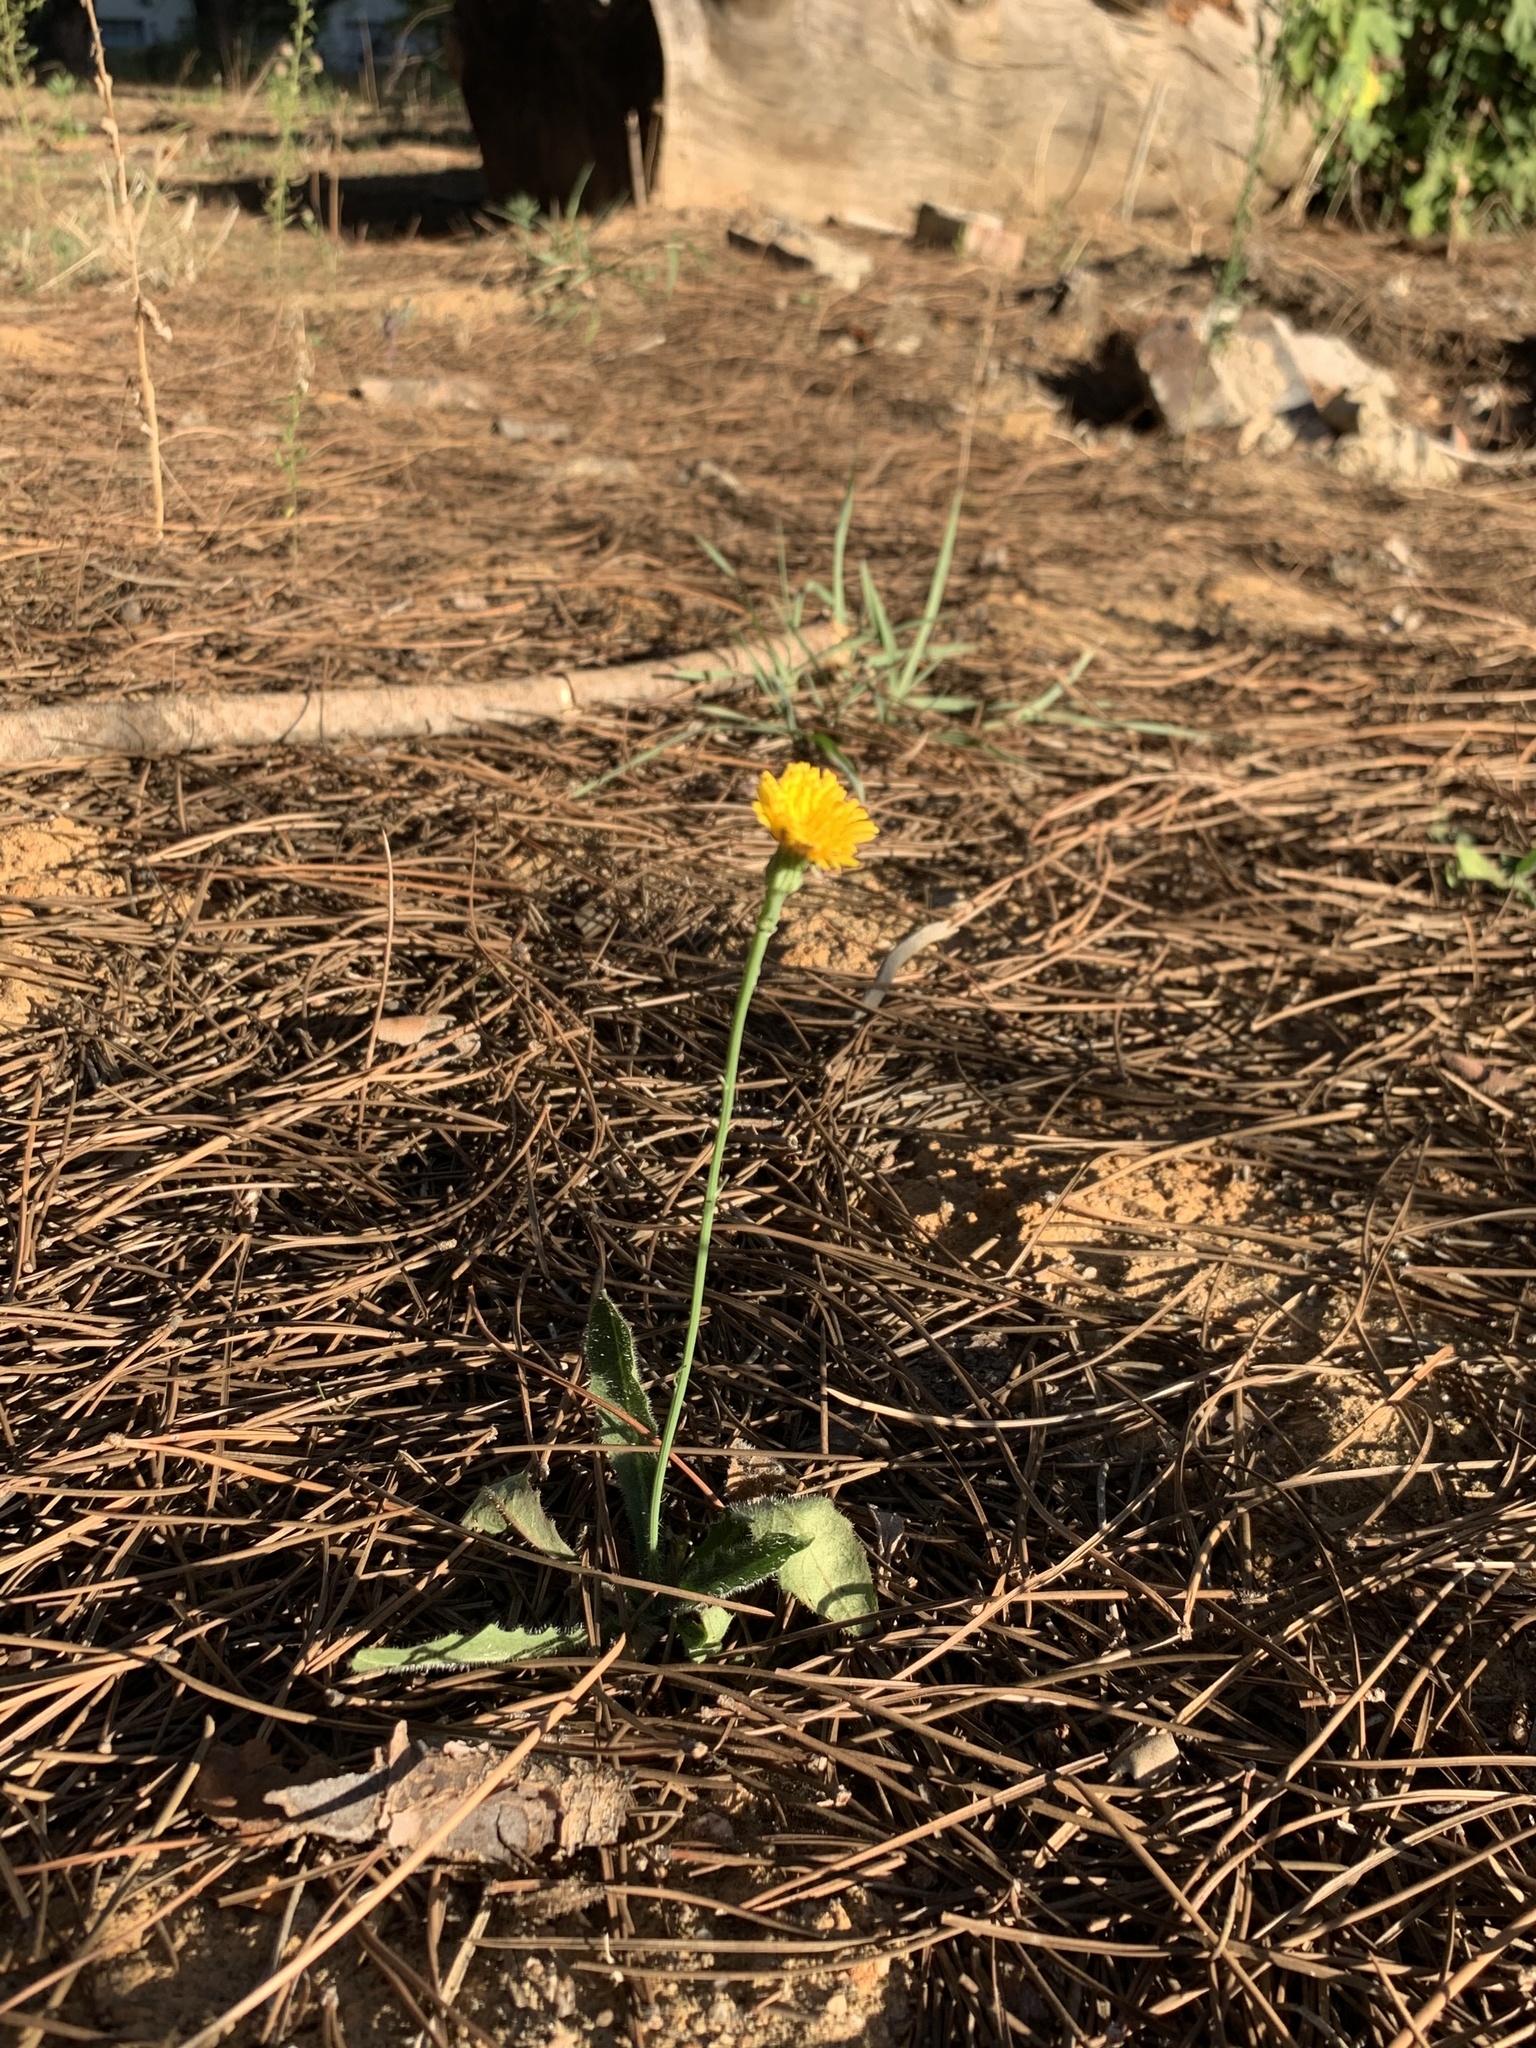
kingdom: Plantae
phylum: Tracheophyta
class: Magnoliopsida
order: Asterales
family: Asteraceae
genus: Hypochaeris
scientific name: Hypochaeris radicata
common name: Flatweed
